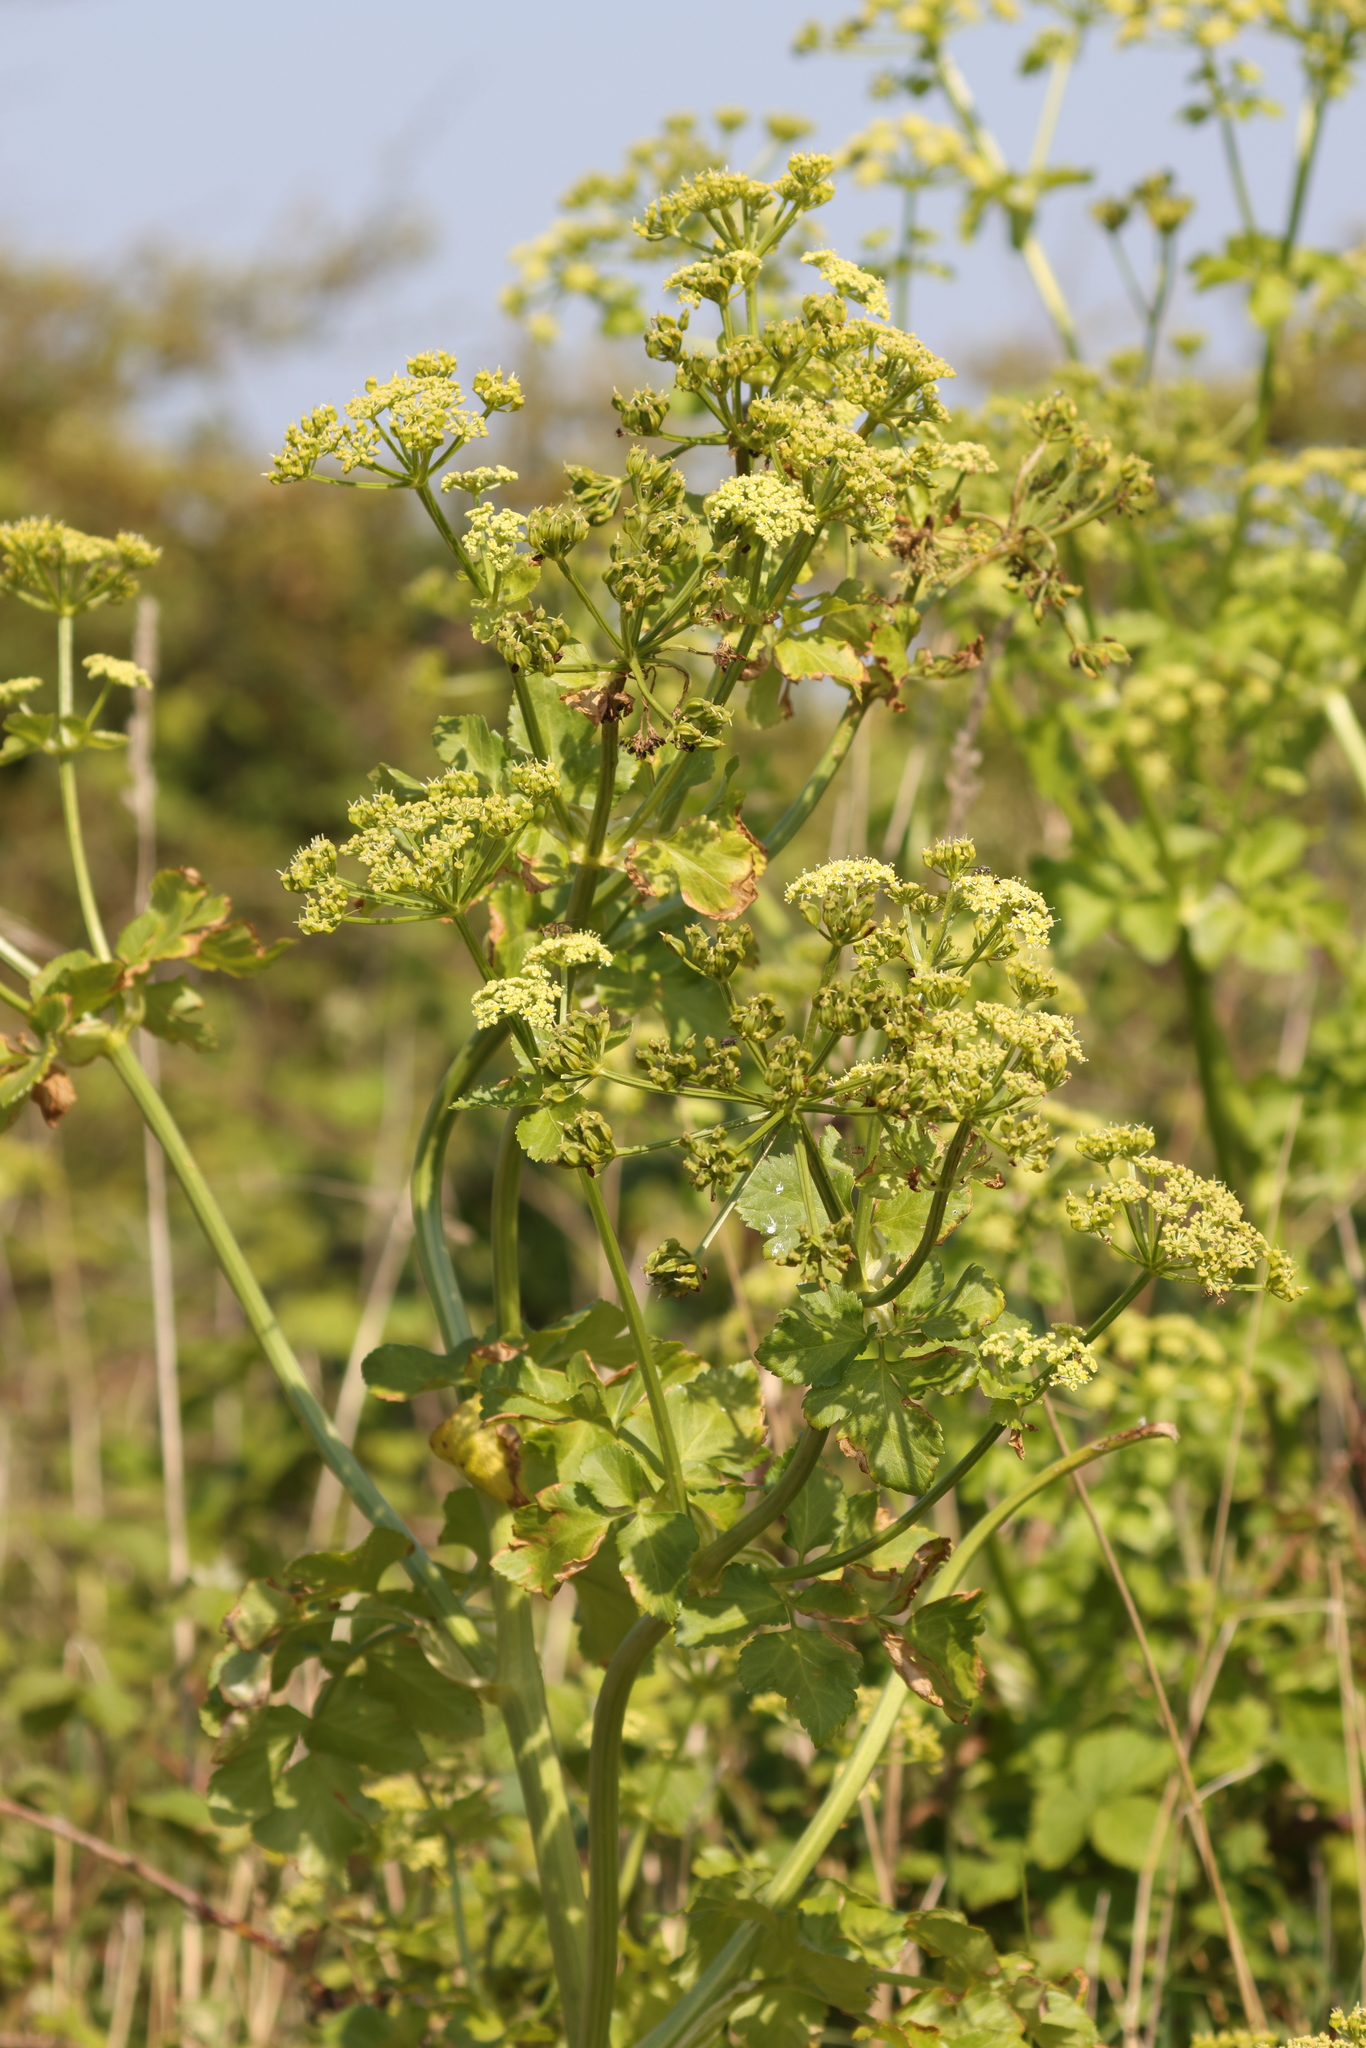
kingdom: Plantae
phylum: Tracheophyta
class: Magnoliopsida
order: Apiales
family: Apiaceae
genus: Smyrnium
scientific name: Smyrnium olusatrum
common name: Alexanders
